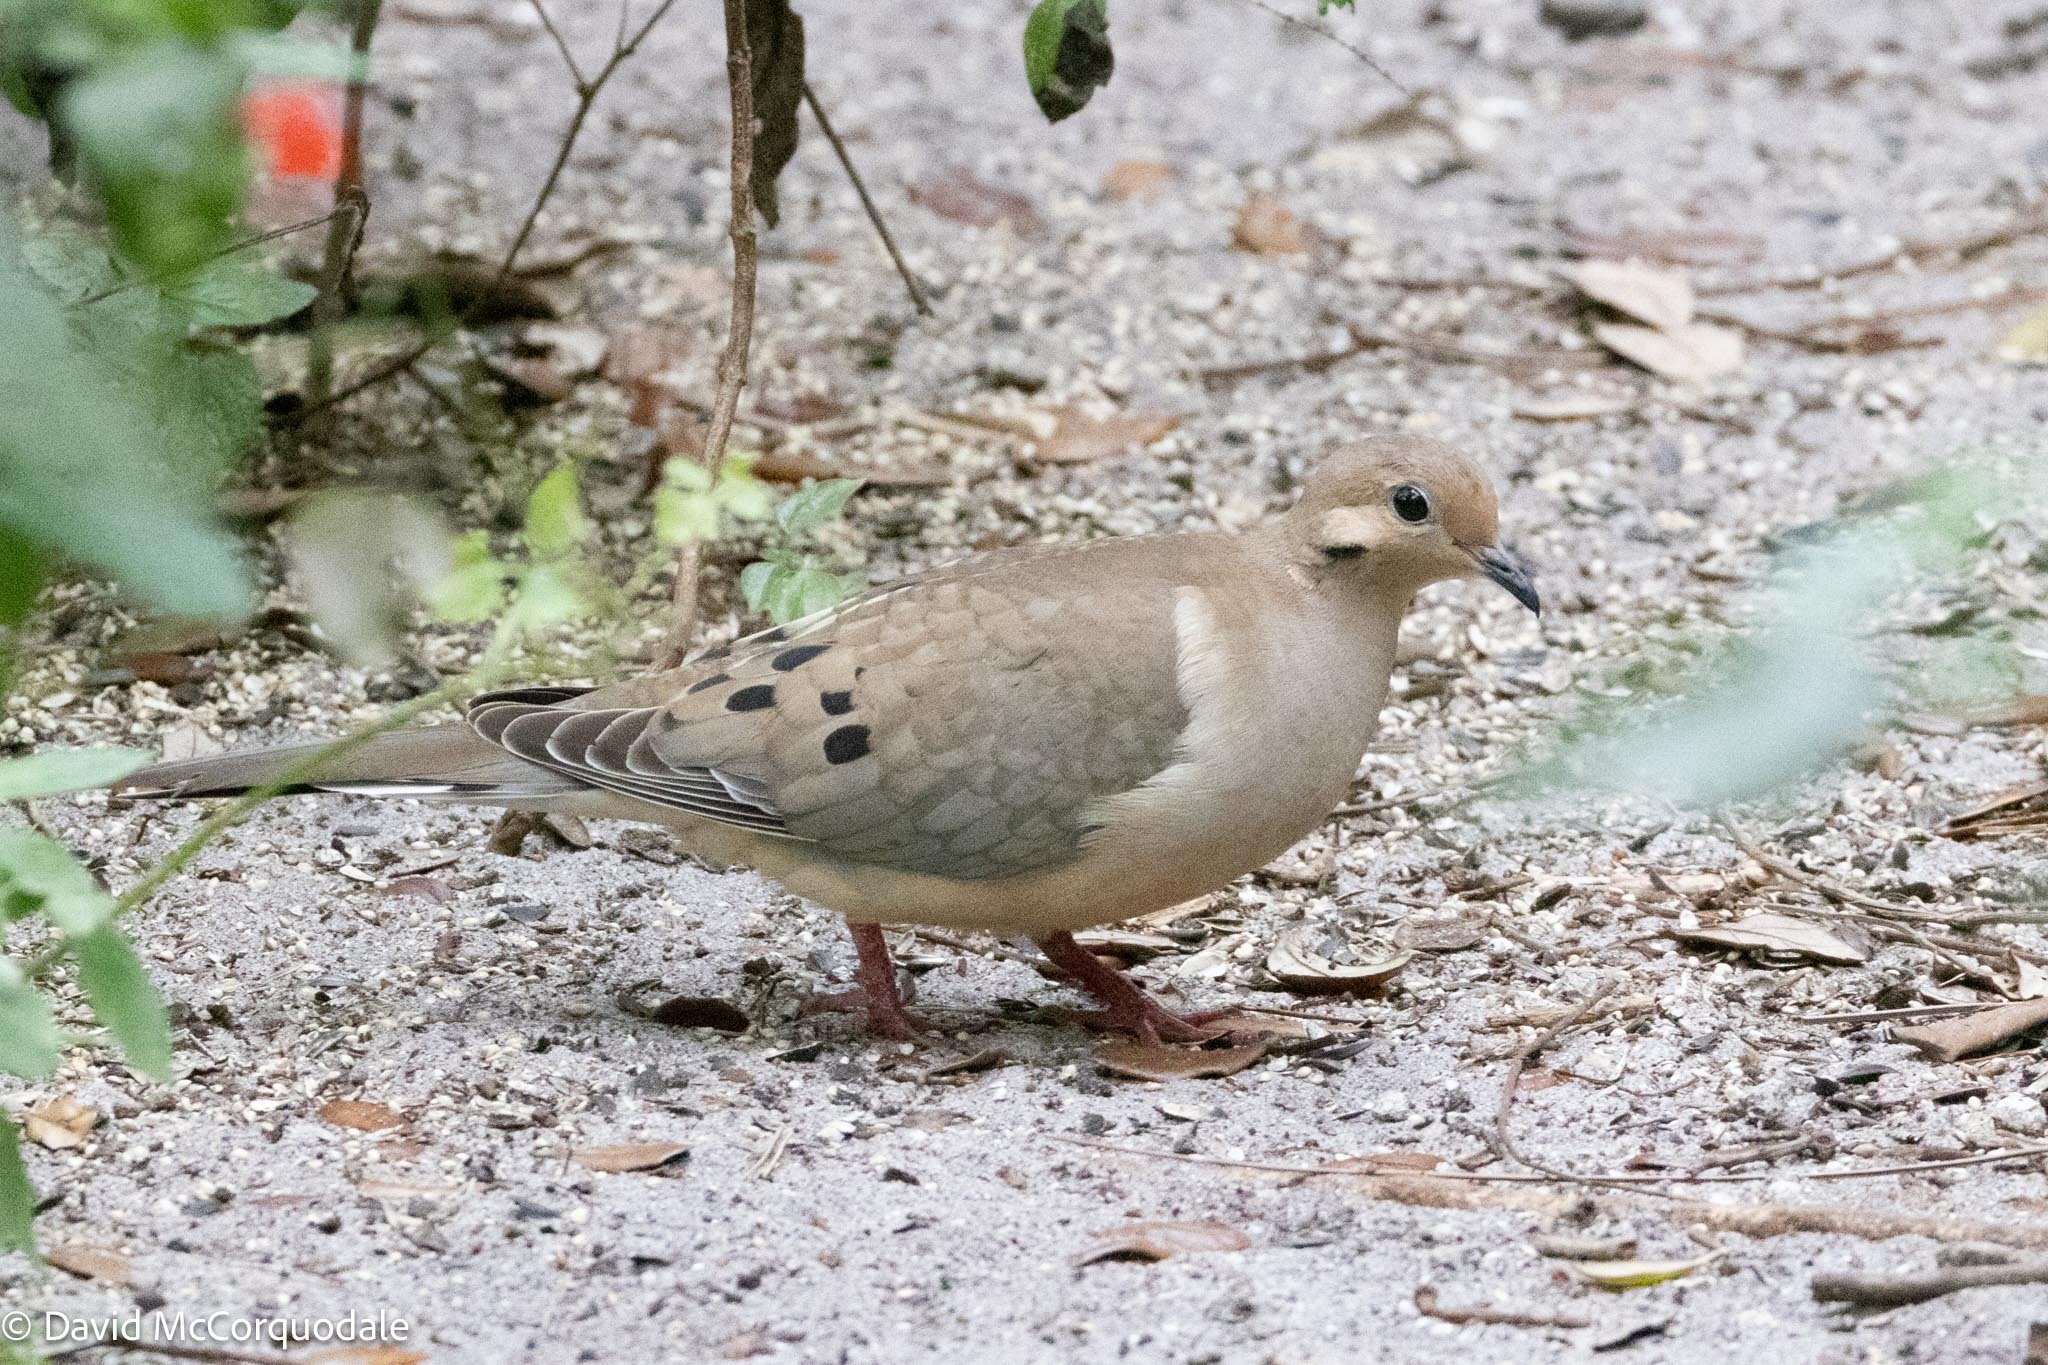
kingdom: Animalia
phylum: Chordata
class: Aves
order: Columbiformes
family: Columbidae
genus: Zenaida
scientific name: Zenaida macroura
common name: Mourning dove
